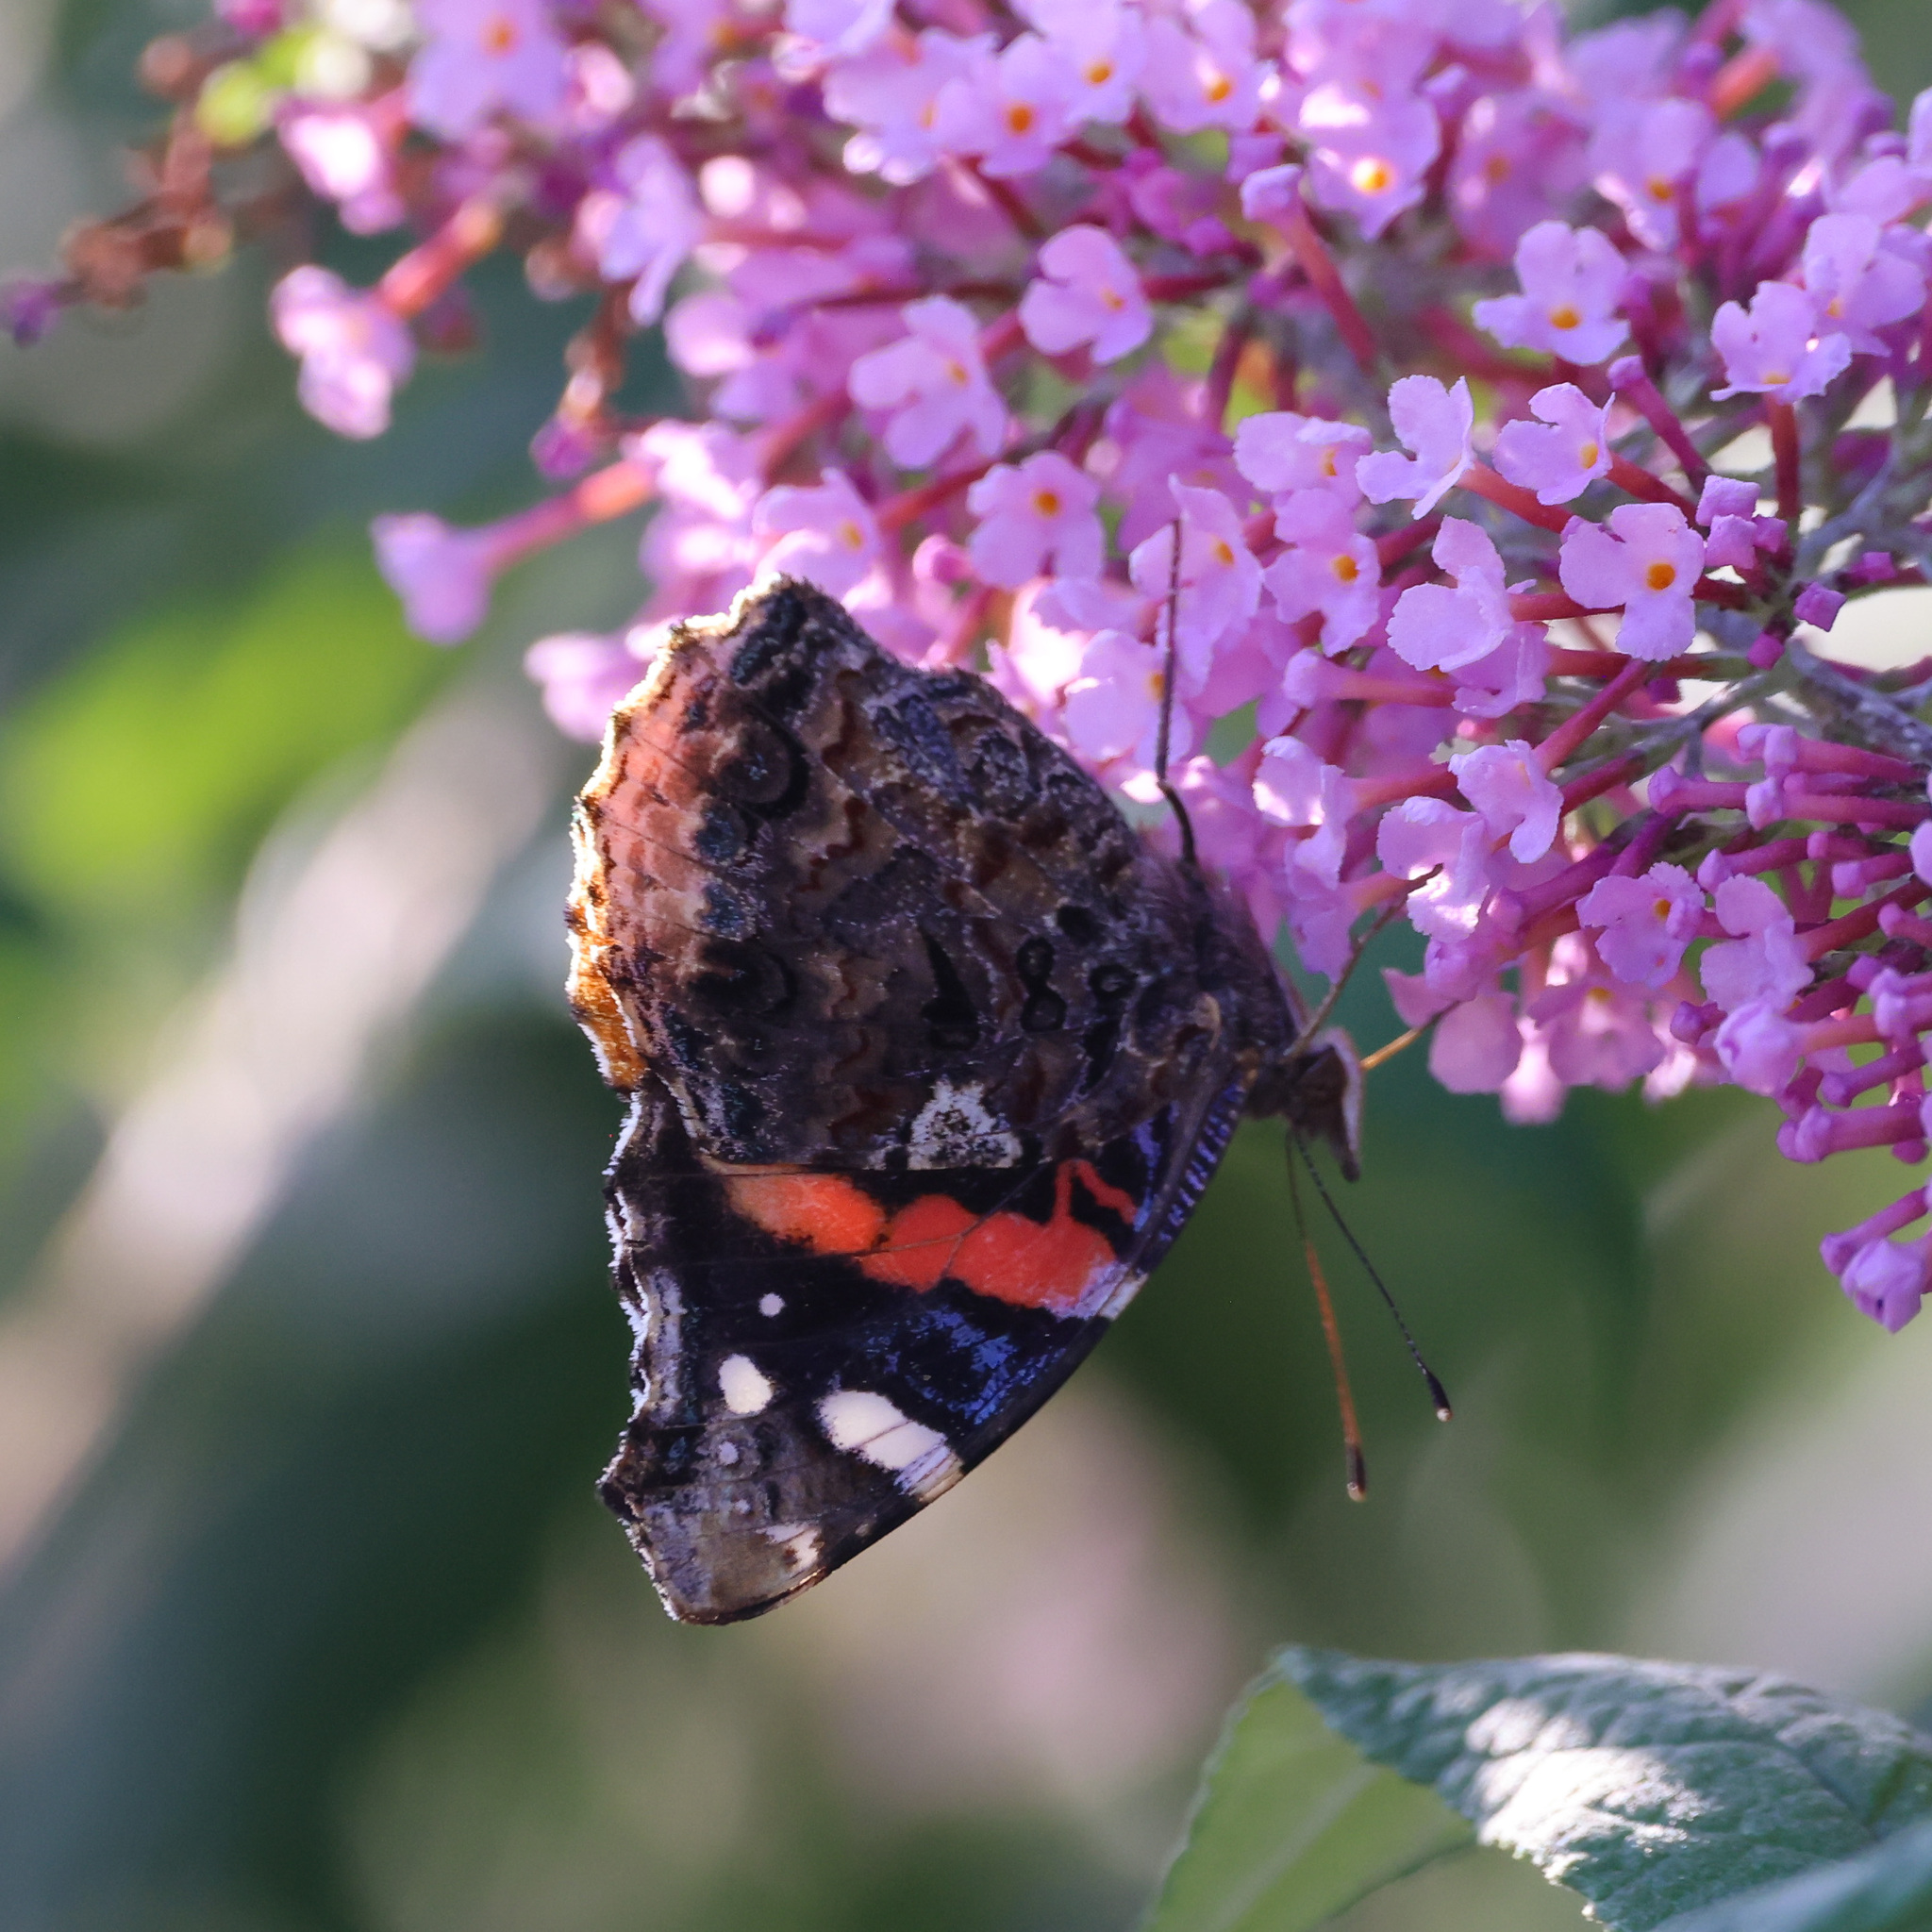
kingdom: Animalia
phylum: Arthropoda
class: Insecta
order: Lepidoptera
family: Nymphalidae
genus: Vanessa
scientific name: Vanessa atalanta
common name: Red admiral
